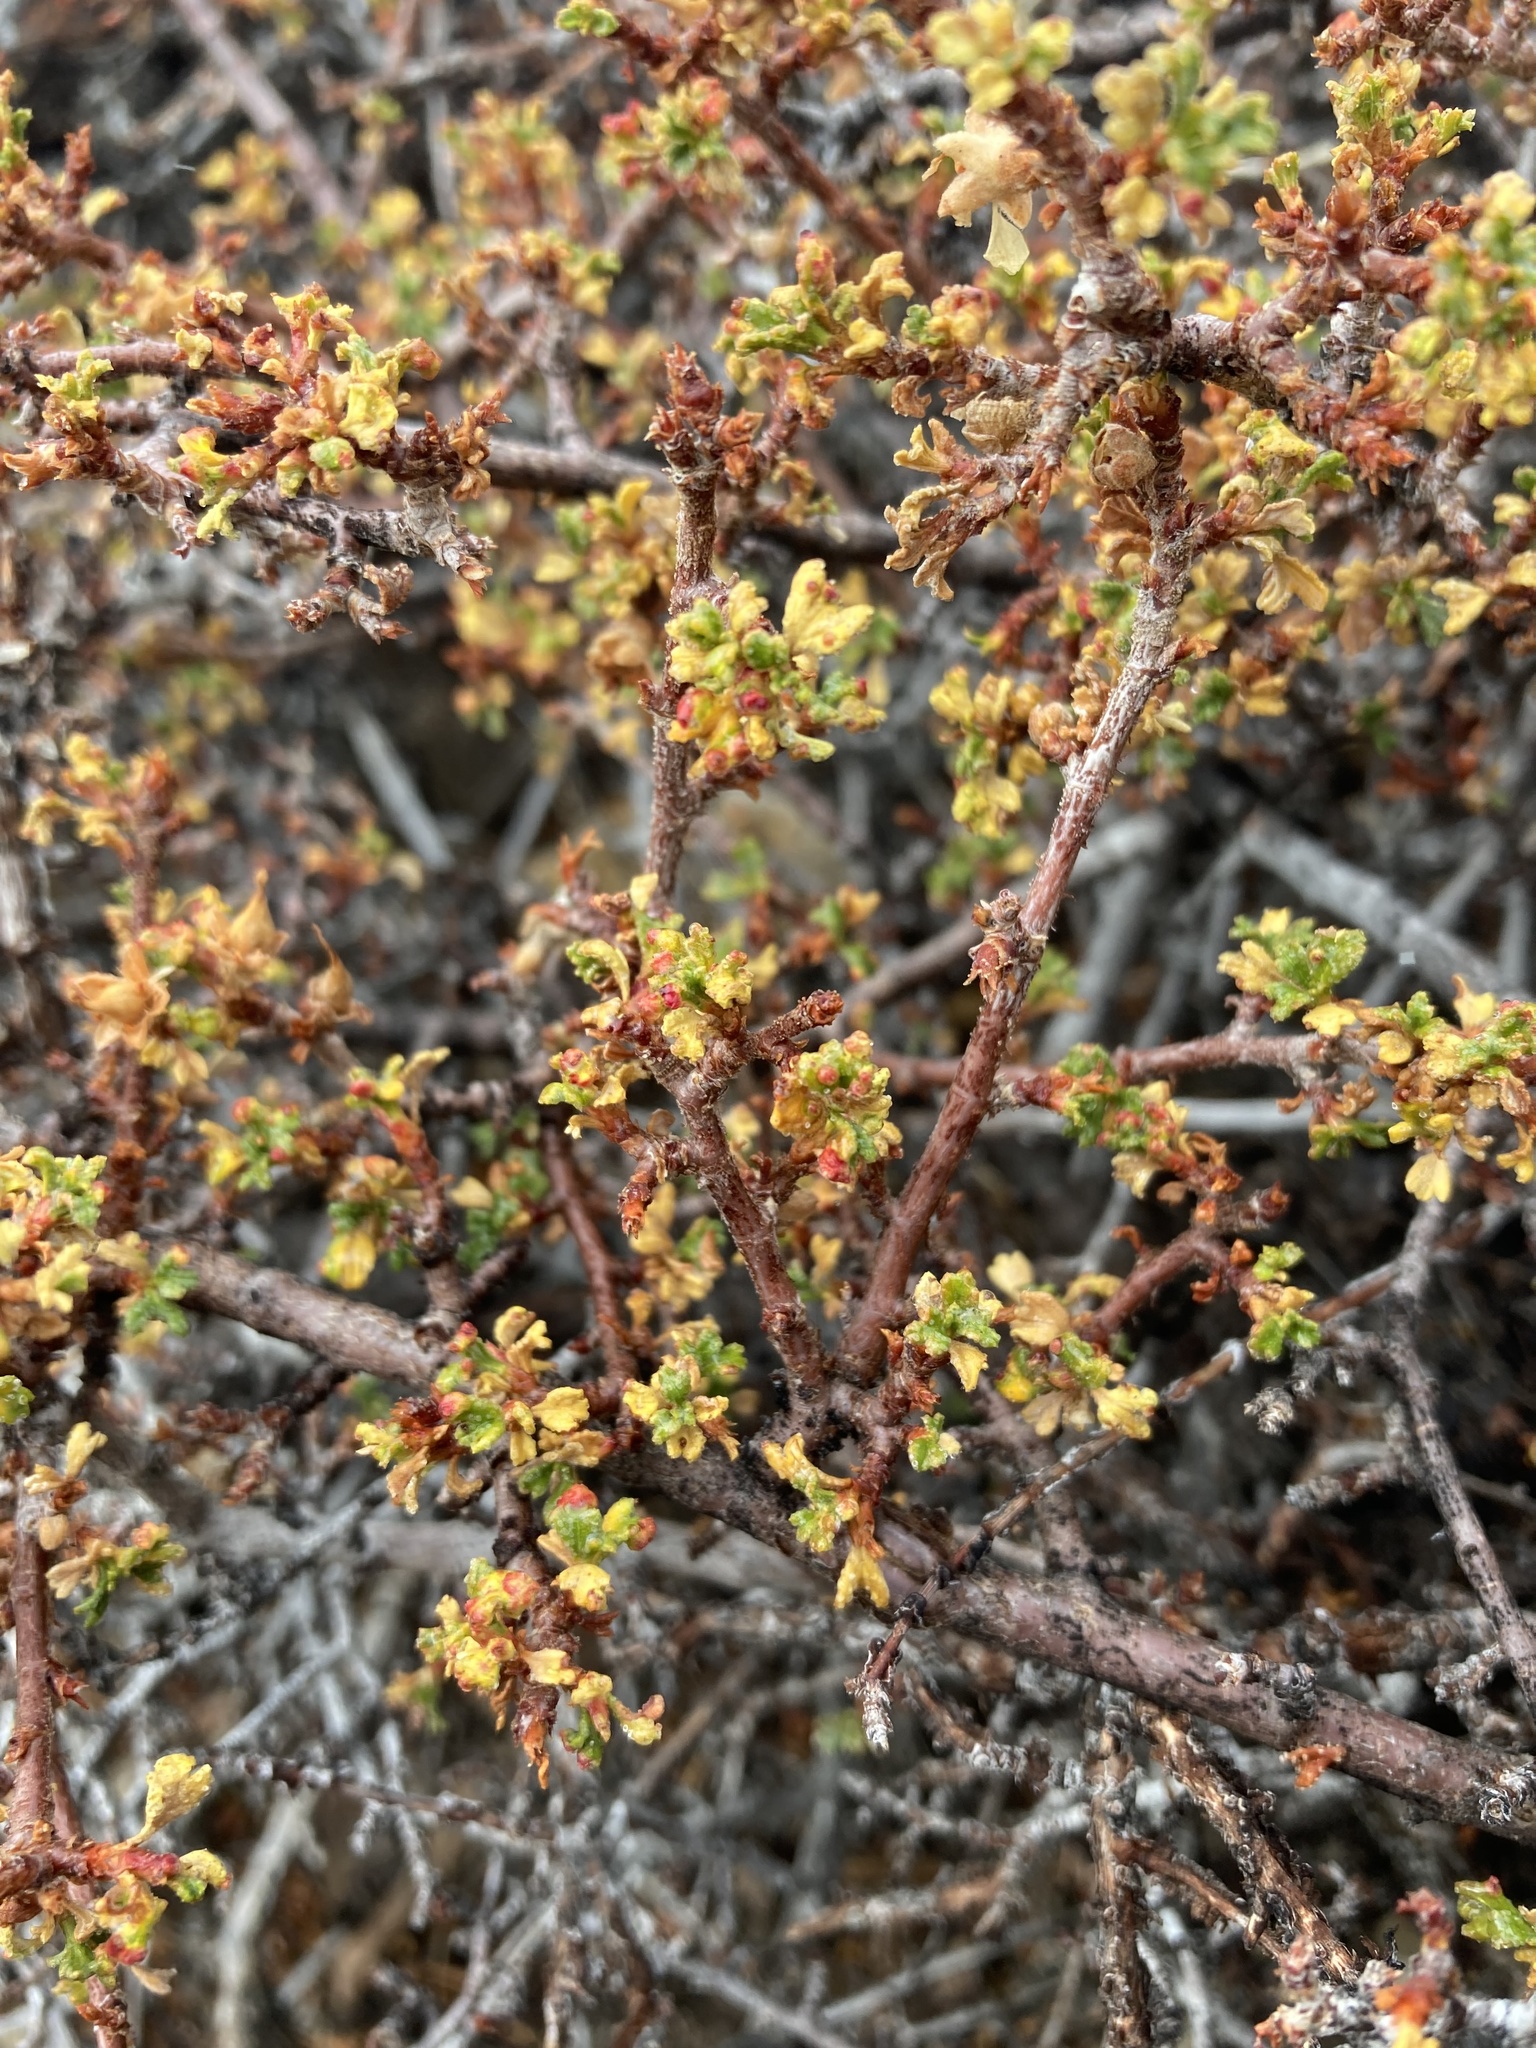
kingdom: Plantae
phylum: Tracheophyta
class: Magnoliopsida
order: Rosales
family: Rosaceae
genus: Purshia
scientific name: Purshia tridentata
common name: Antelope bitterbrush
